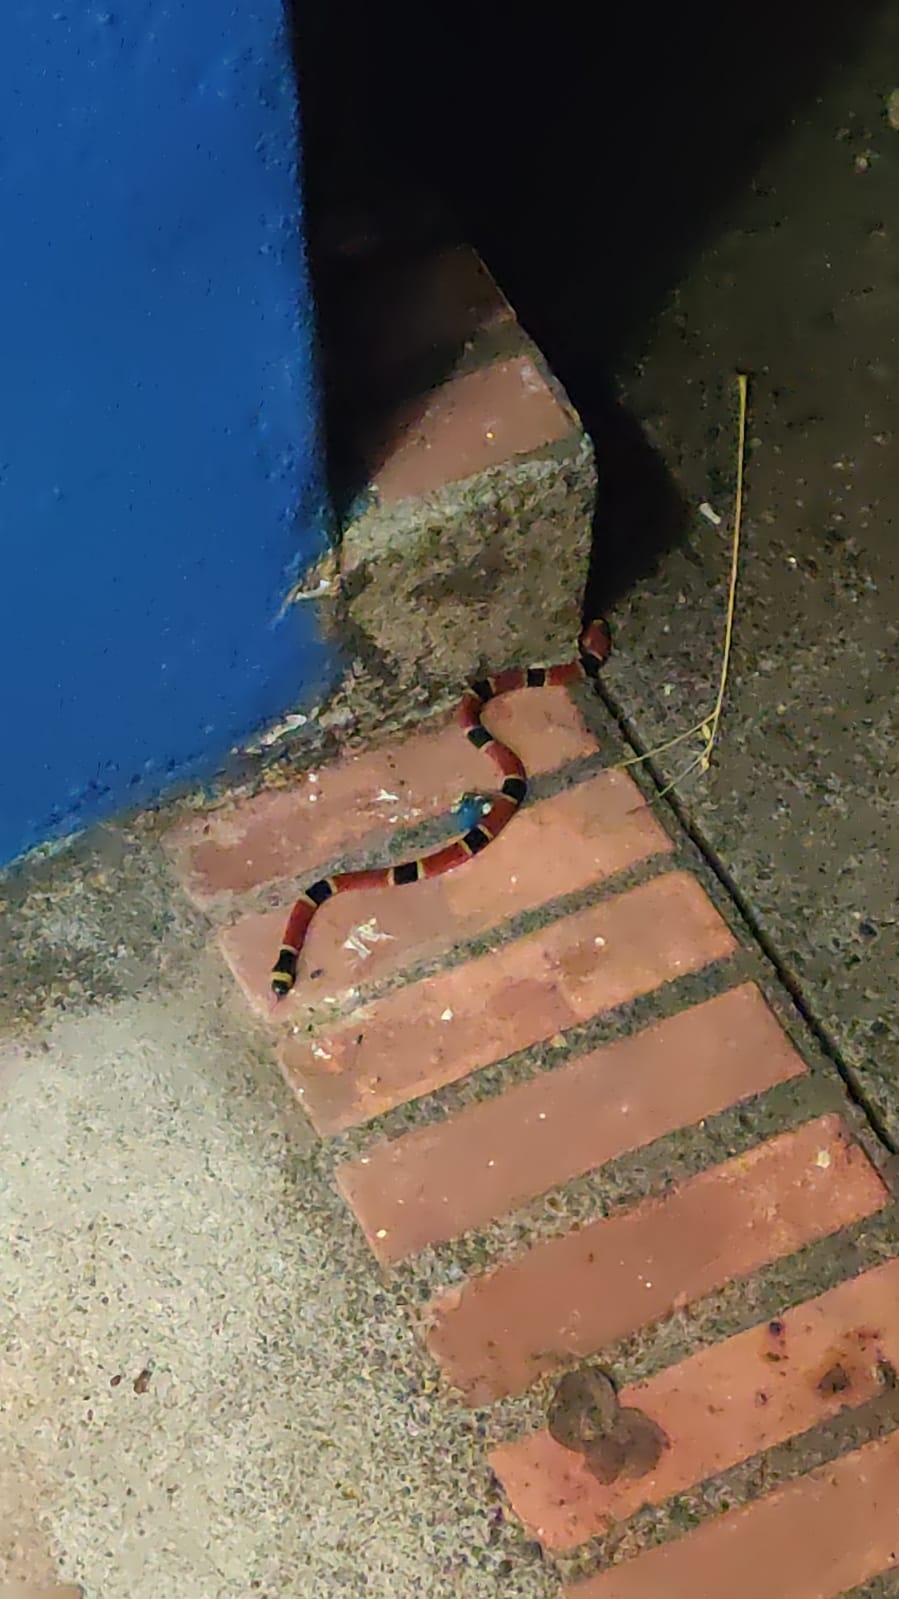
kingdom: Animalia
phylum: Chordata
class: Squamata
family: Elapidae
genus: Micrurus
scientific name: Micrurus nigrocinctus
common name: Babaspul [babaspul]
